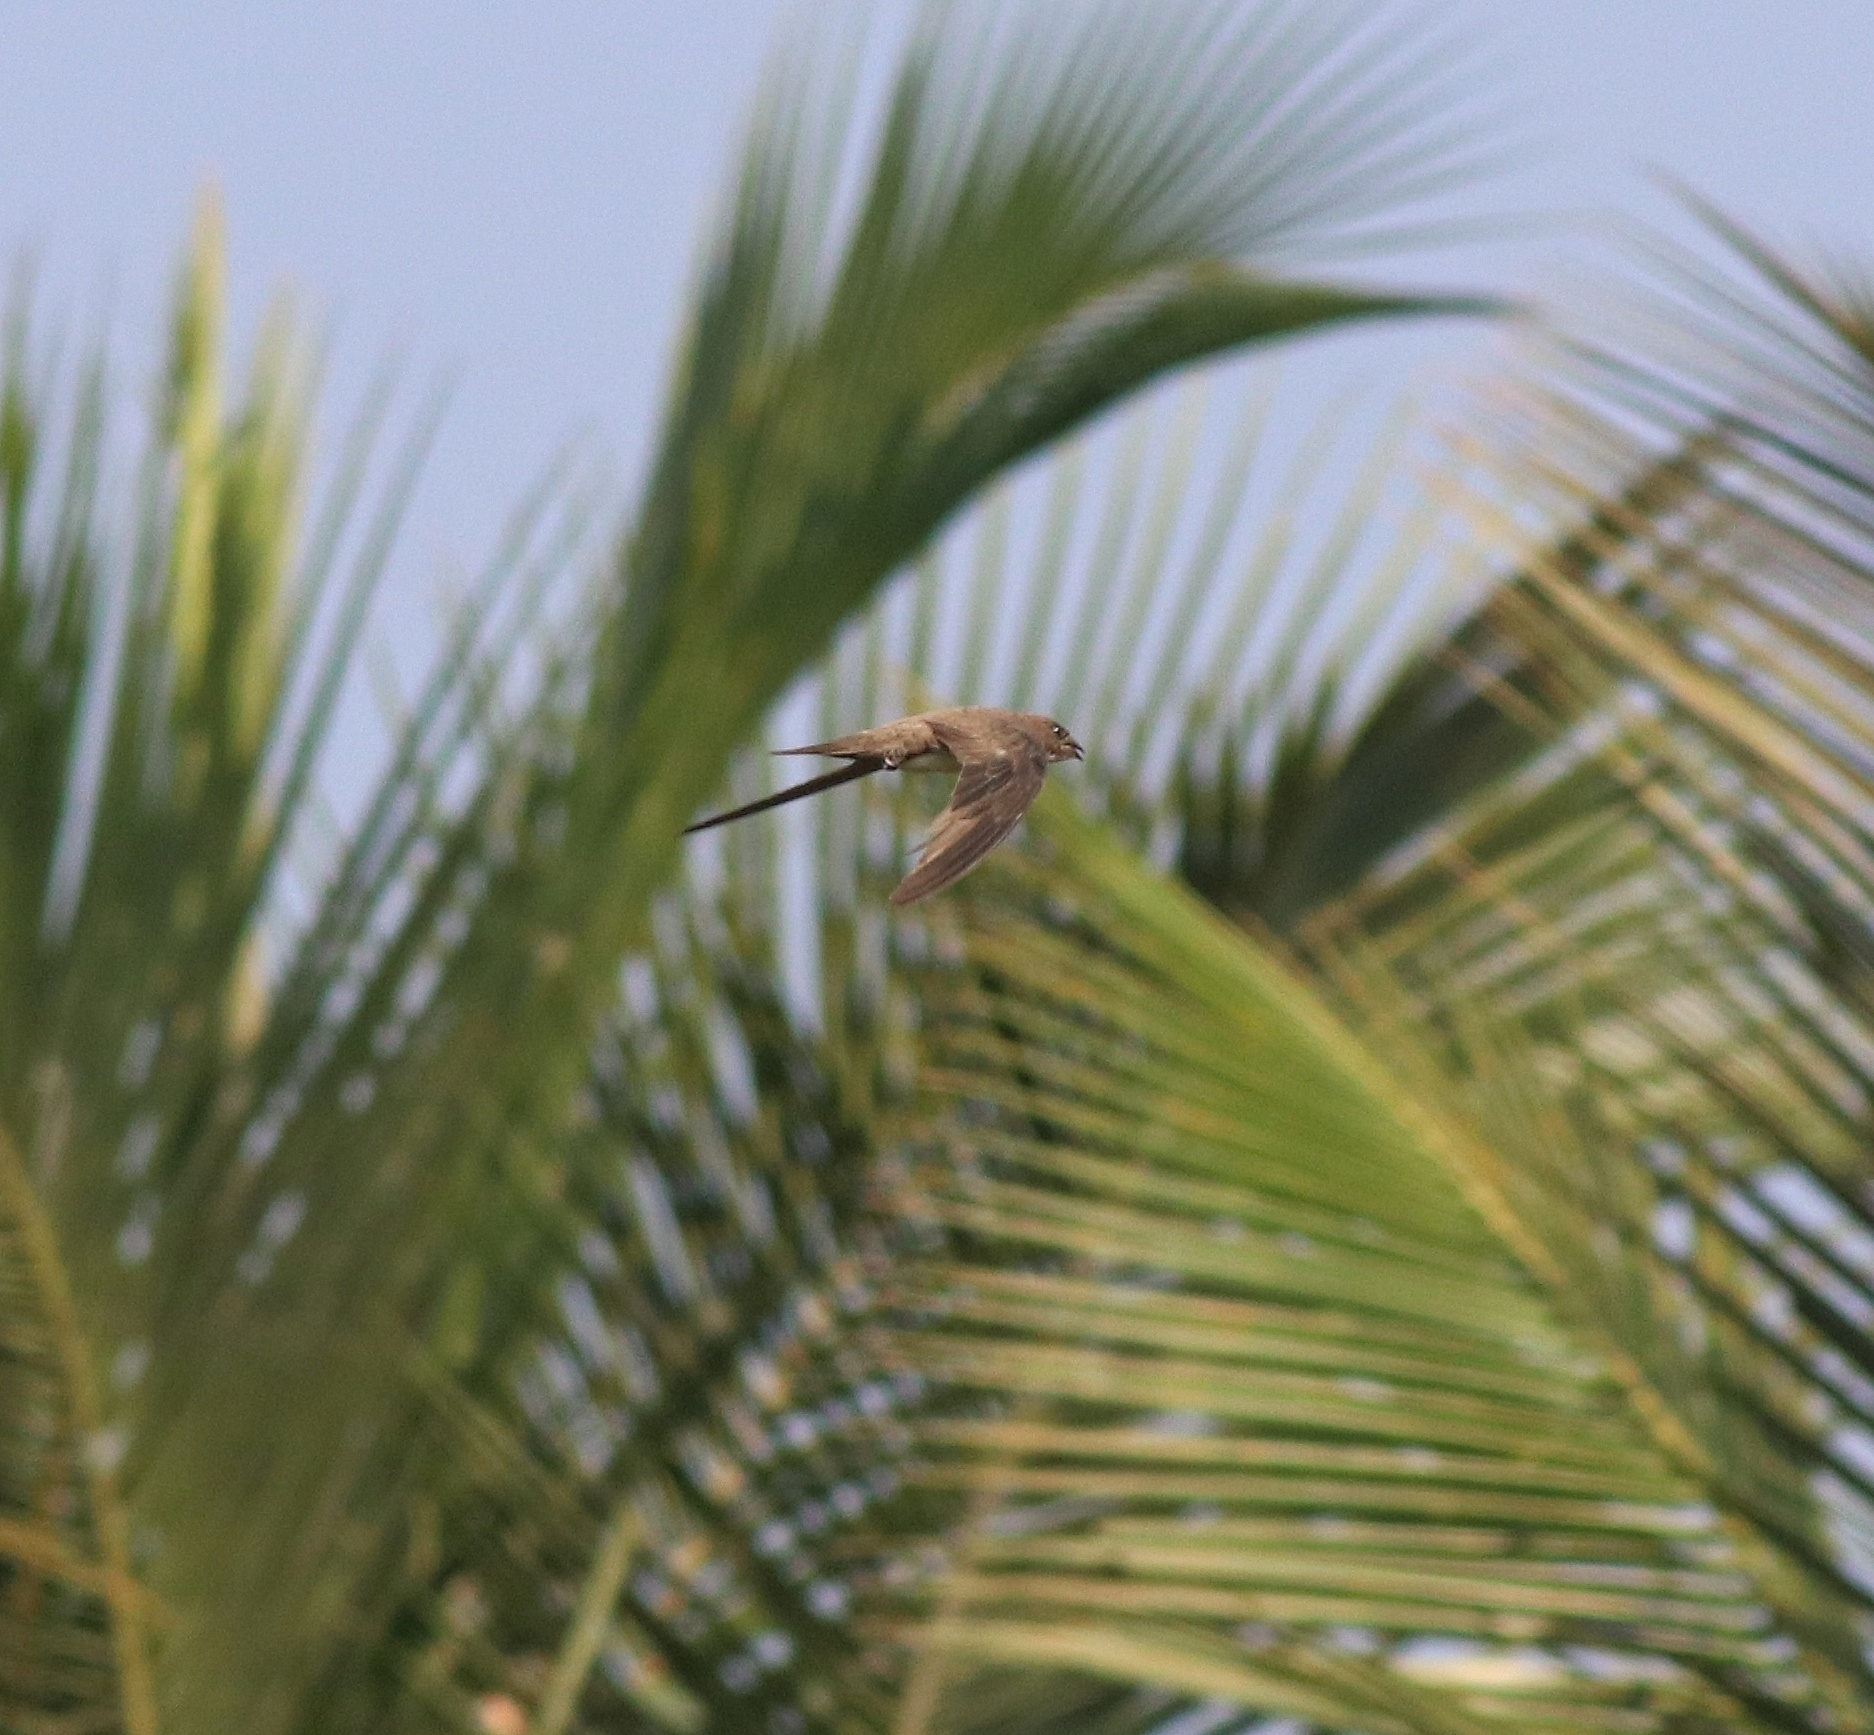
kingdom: Animalia
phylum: Chordata
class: Aves
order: Apodiformes
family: Apodidae
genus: Tachymarptis
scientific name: Tachymarptis melba
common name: Alpine swift
